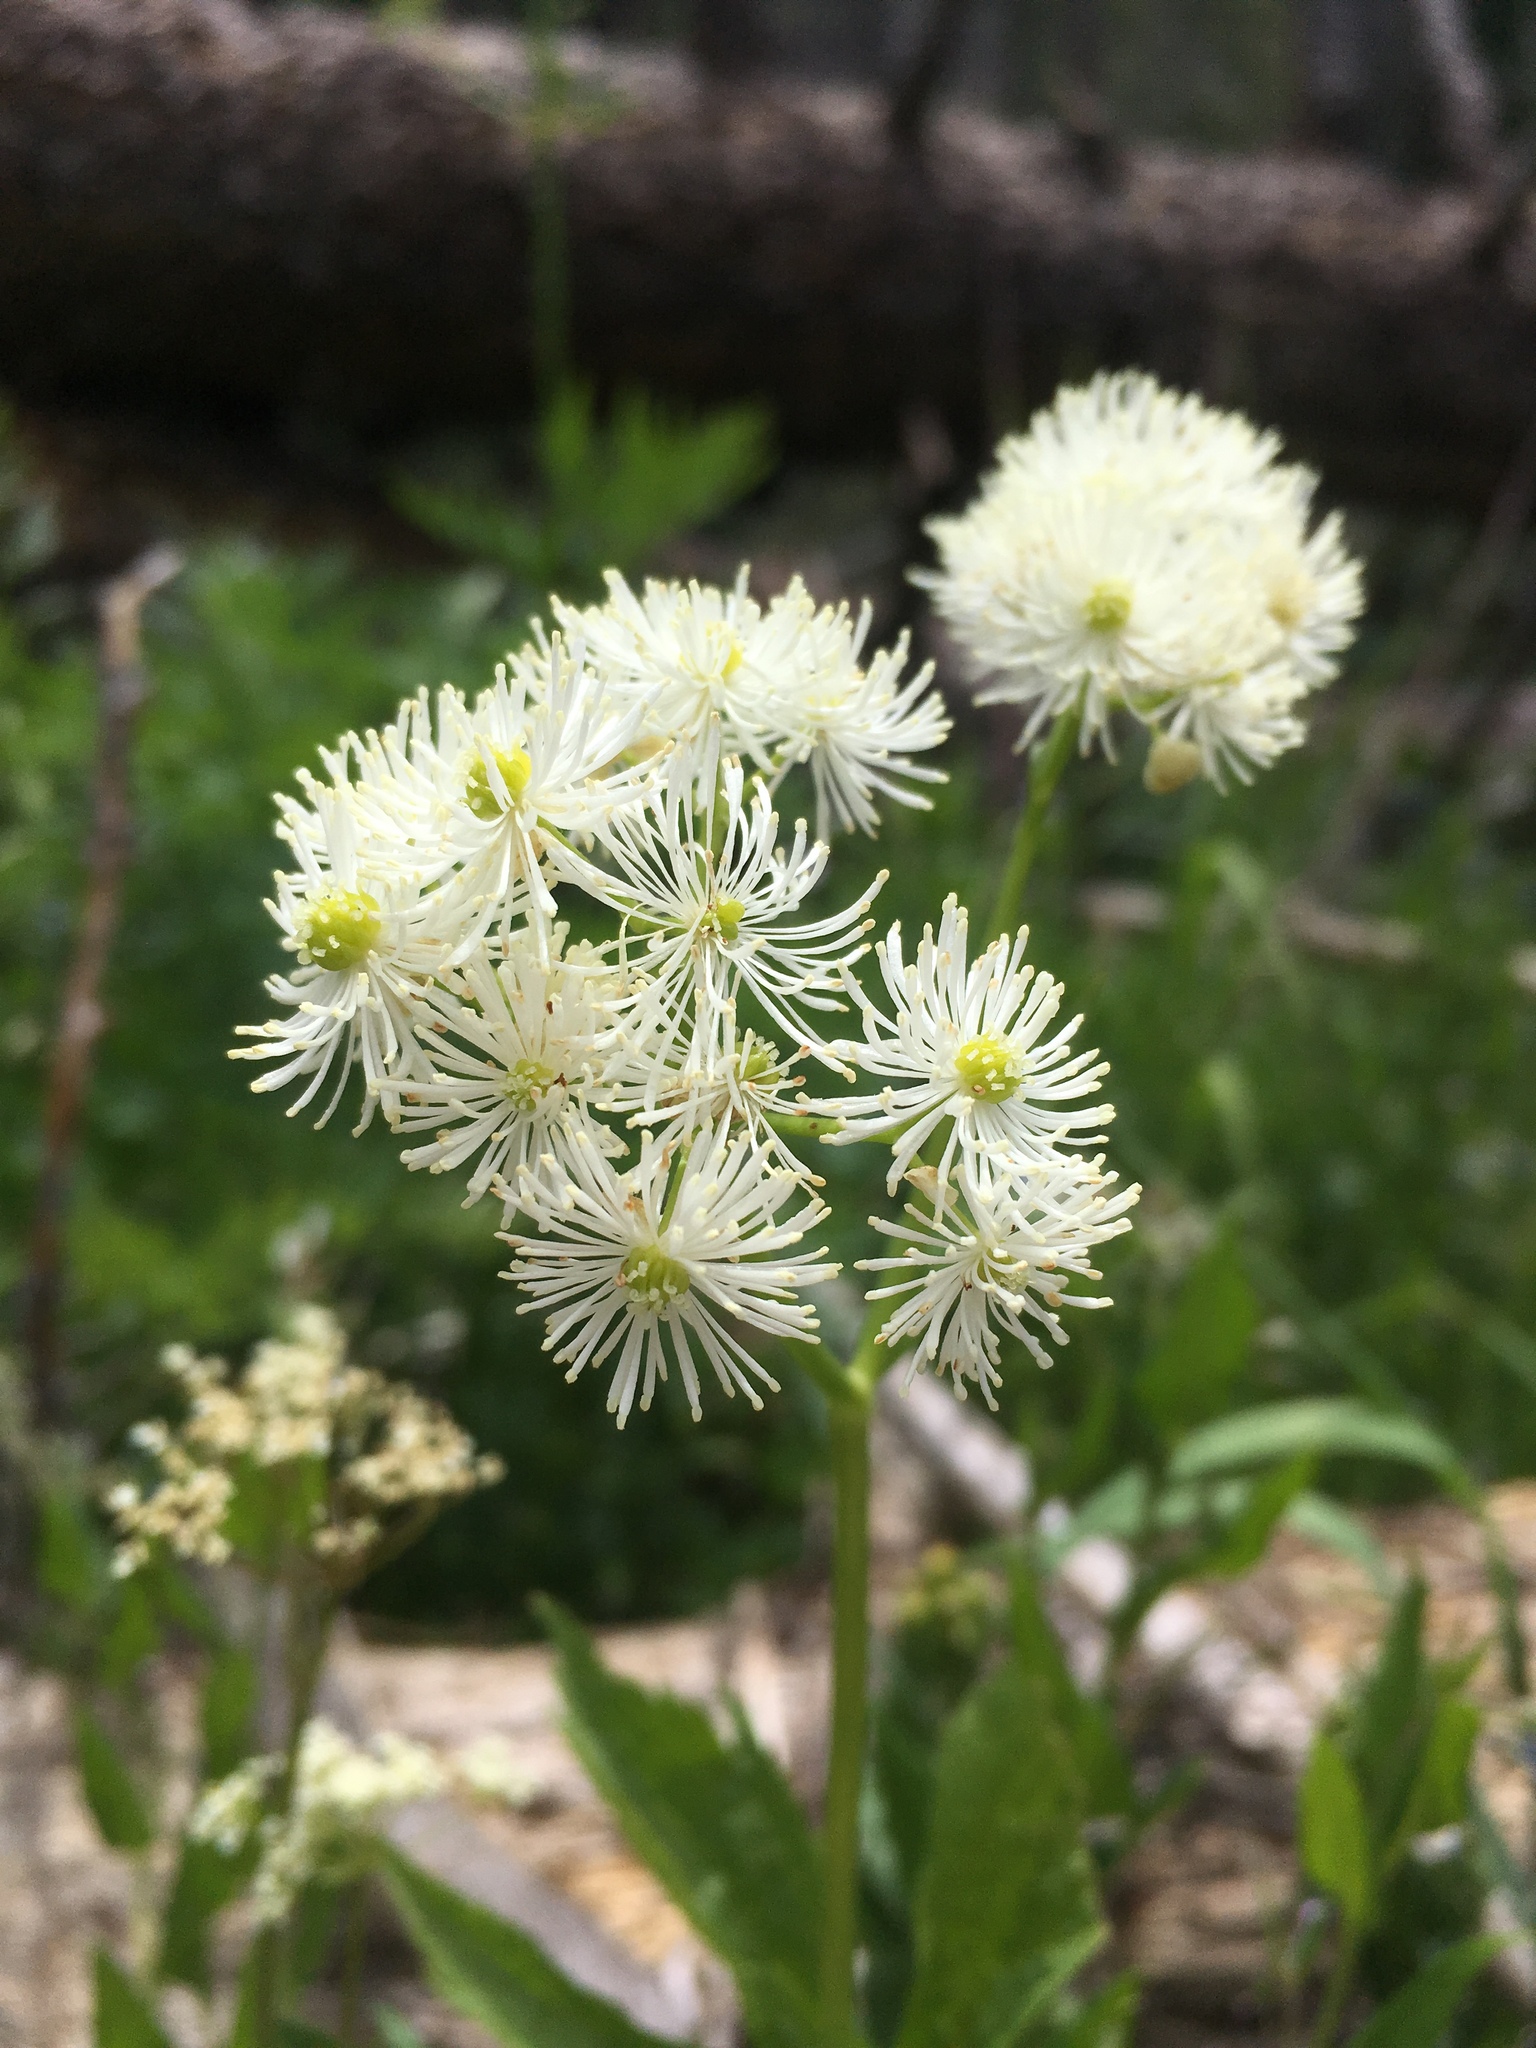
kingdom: Plantae
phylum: Tracheophyta
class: Magnoliopsida
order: Ranunculales
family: Ranunculaceae
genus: Trautvetteria
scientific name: Trautvetteria carolinensis
